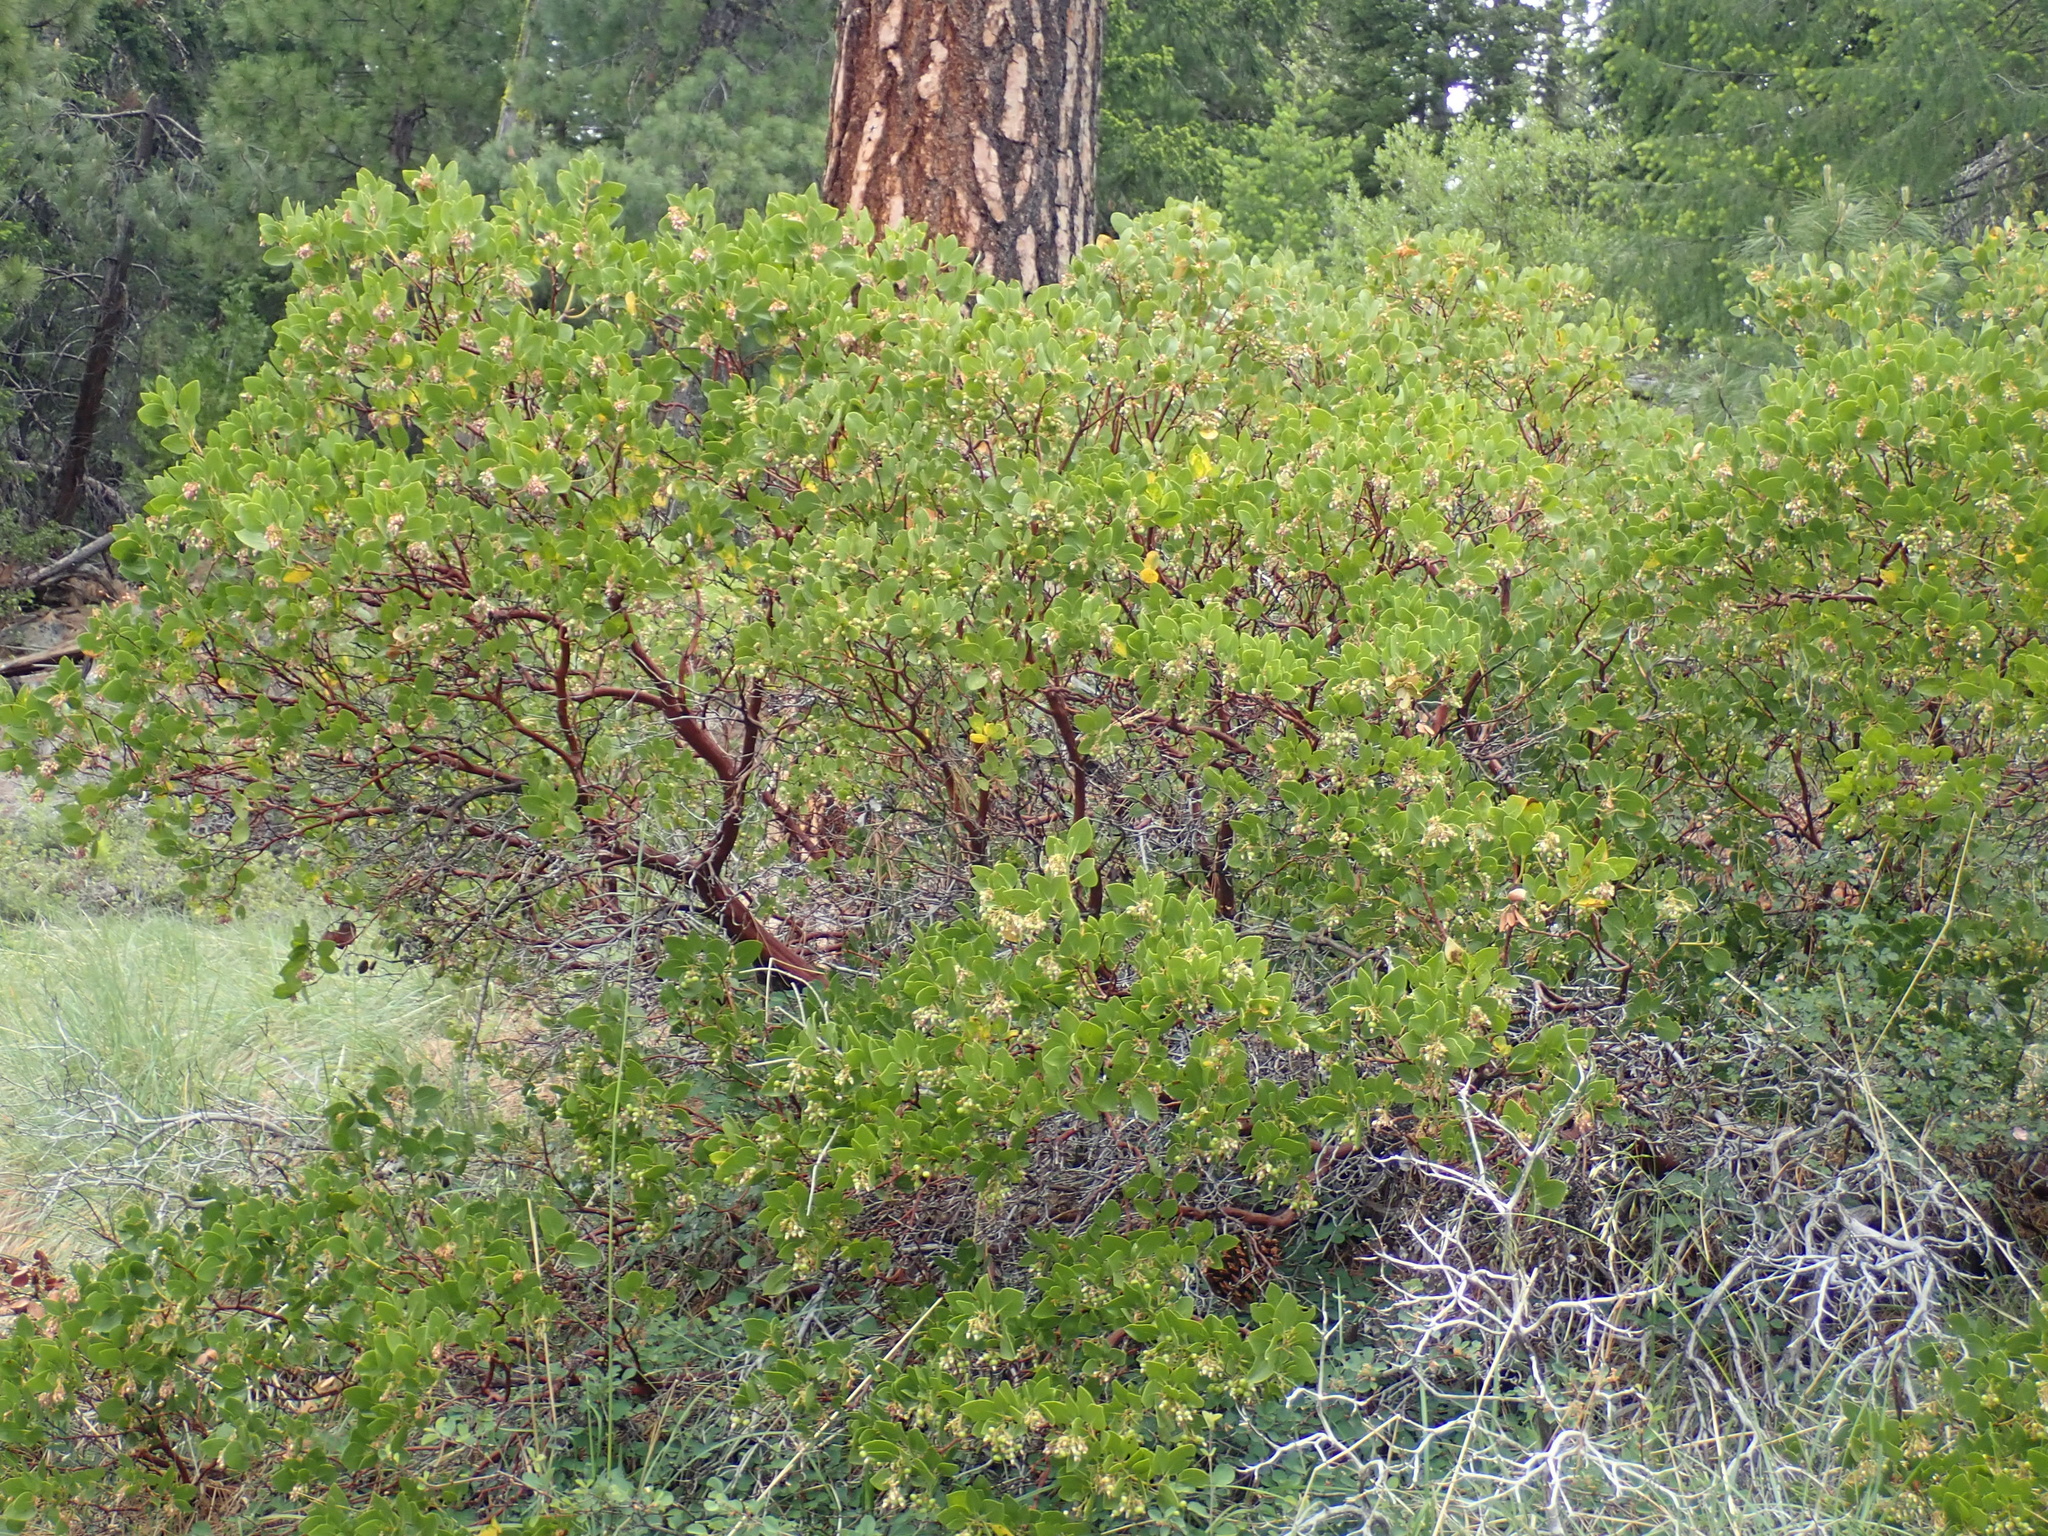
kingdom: Plantae
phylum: Tracheophyta
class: Magnoliopsida
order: Ericales
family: Ericaceae
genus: Arctostaphylos
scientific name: Arctostaphylos patula
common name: Green-leaf manzanita
